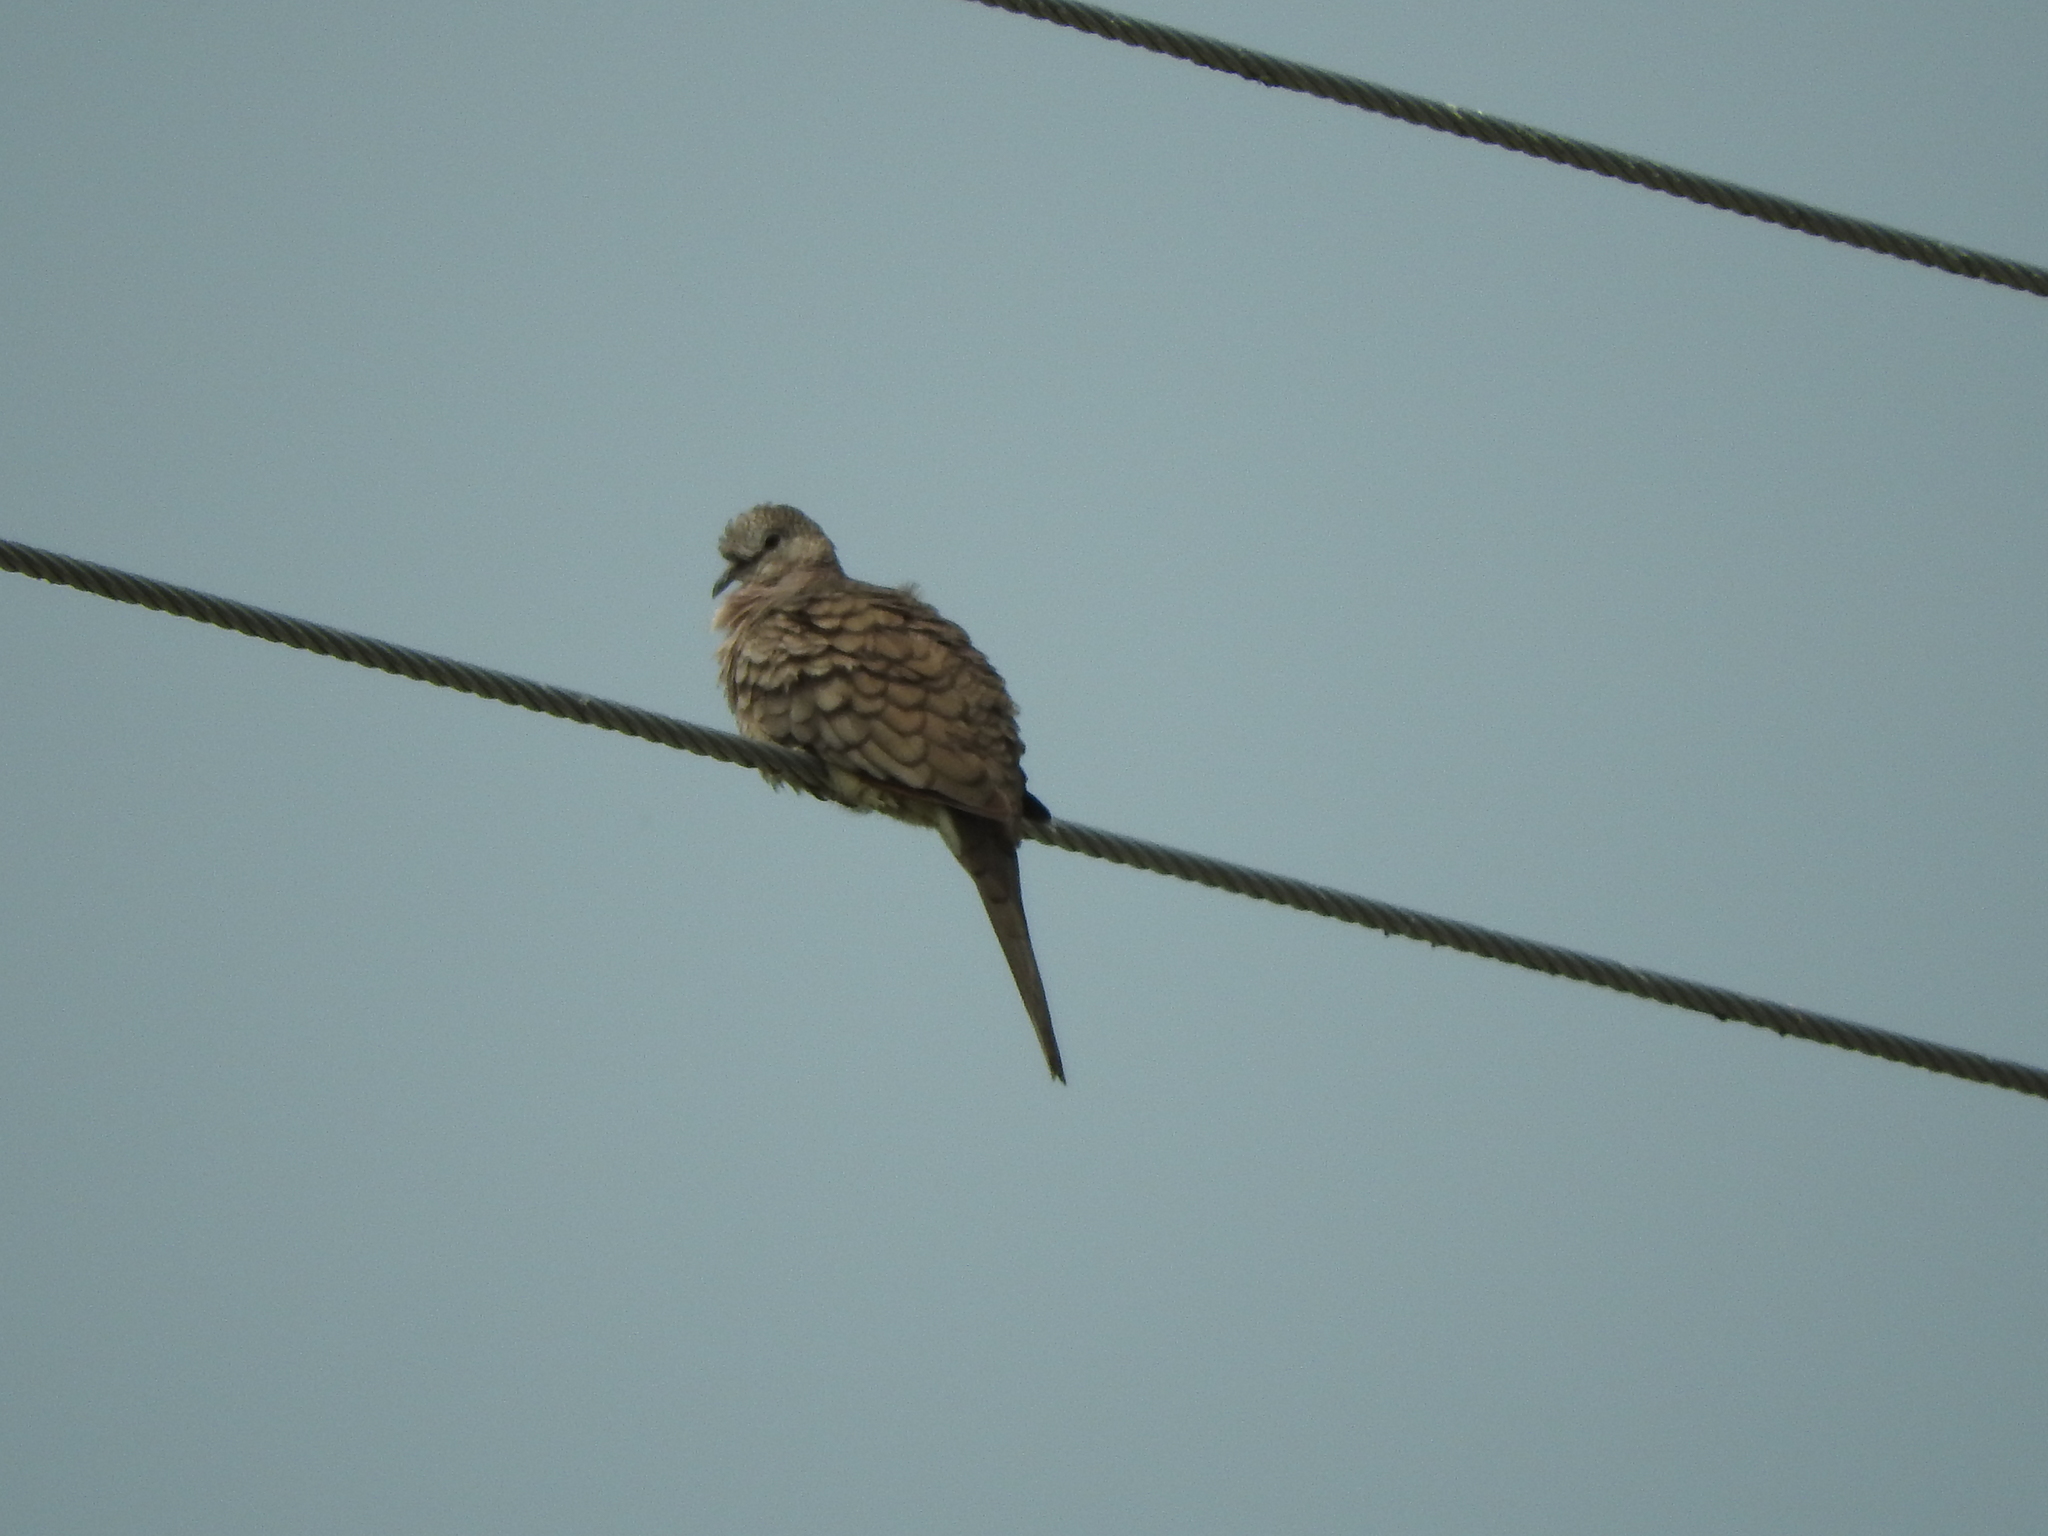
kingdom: Animalia
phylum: Chordata
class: Aves
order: Columbiformes
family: Columbidae
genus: Columbina
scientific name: Columbina inca
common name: Inca dove
